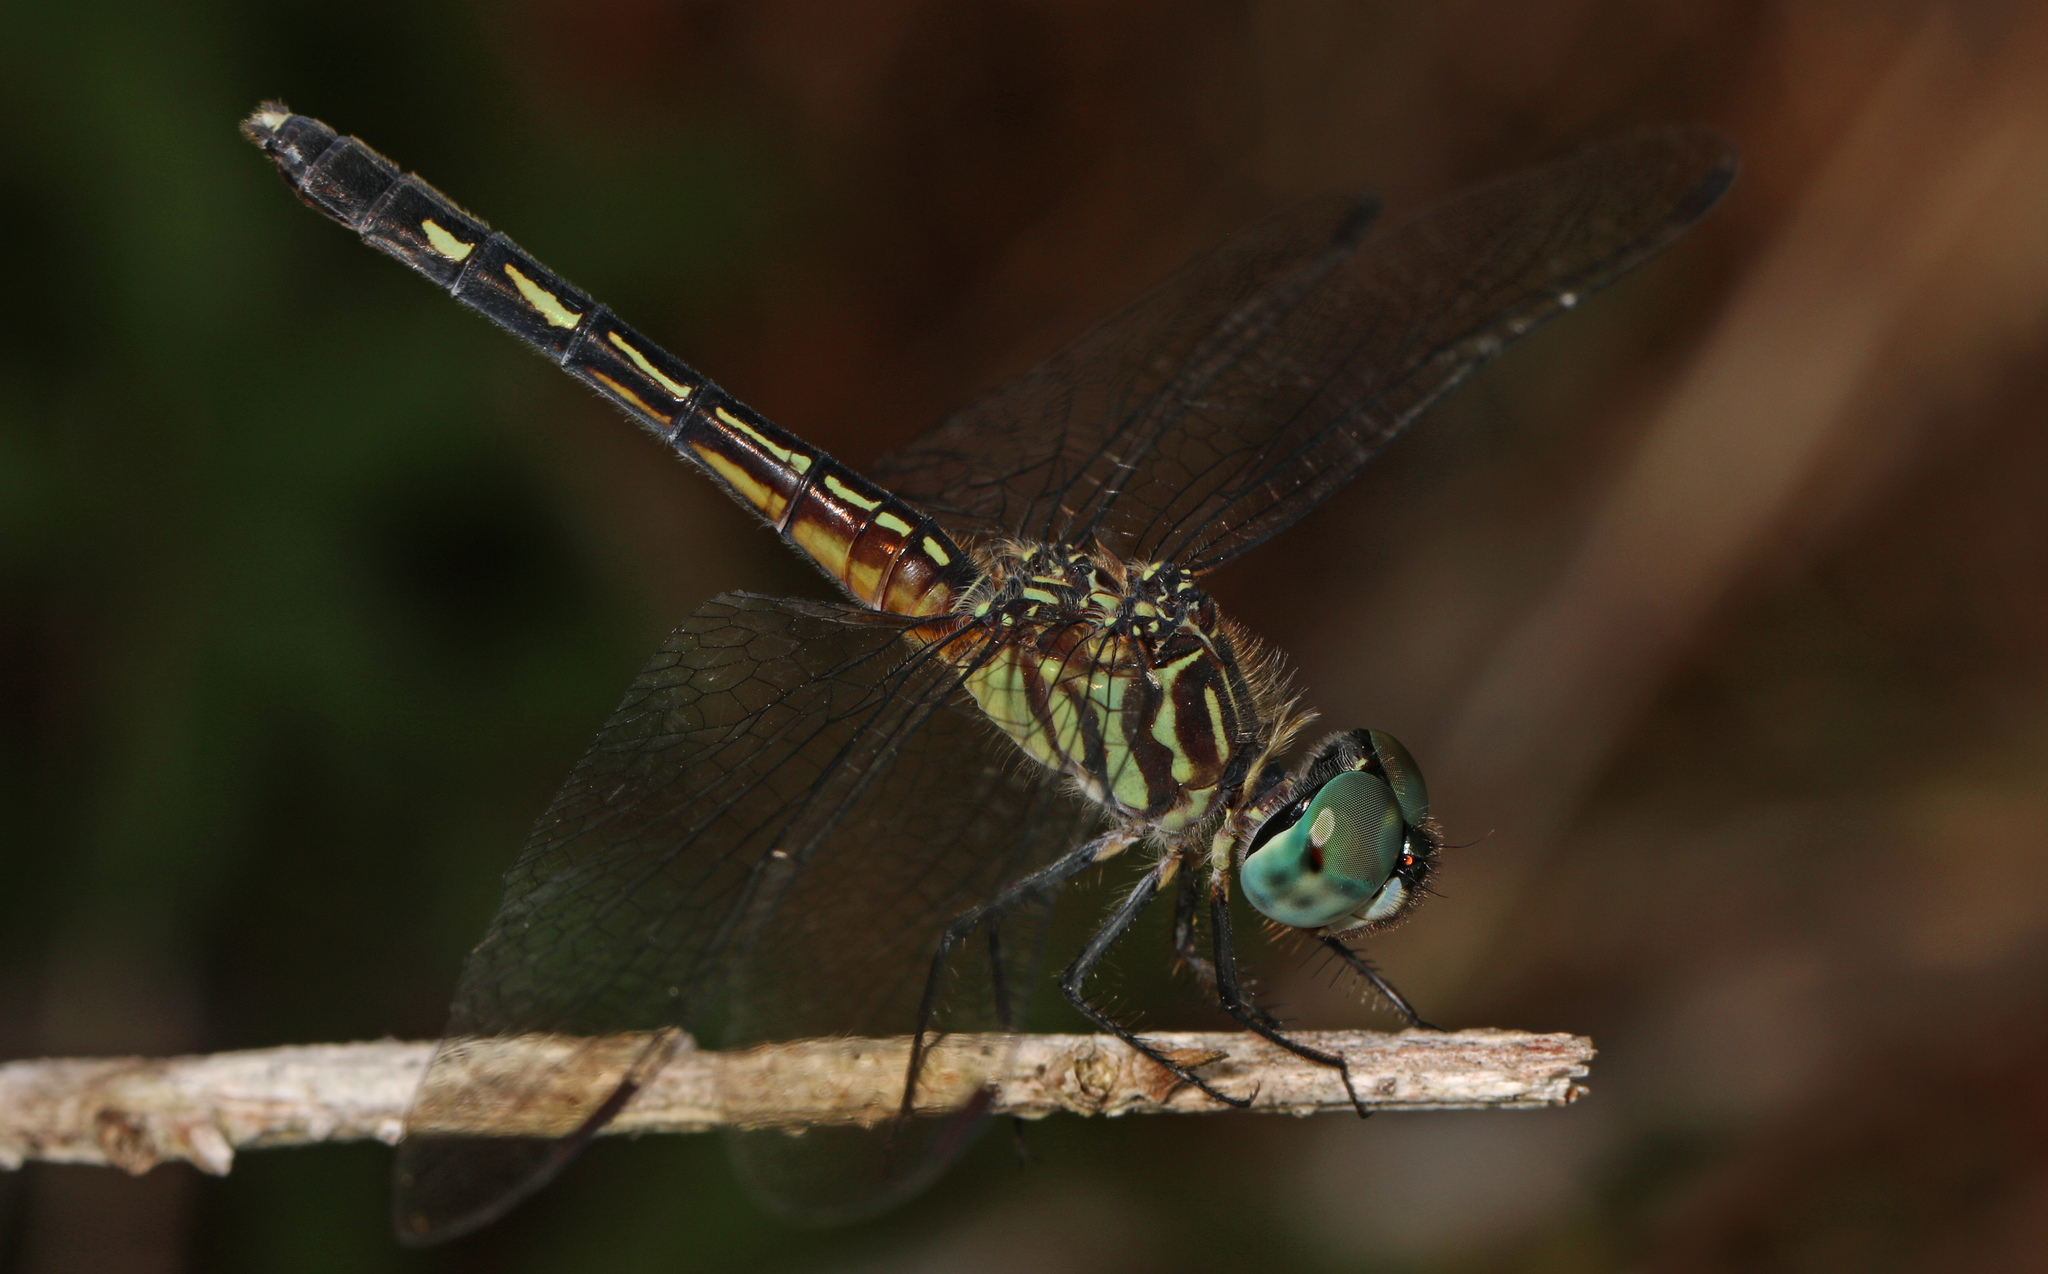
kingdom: Animalia
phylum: Arthropoda
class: Insecta
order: Odonata
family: Libellulidae
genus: Pachydiplax
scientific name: Pachydiplax longipennis
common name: Blue dasher
